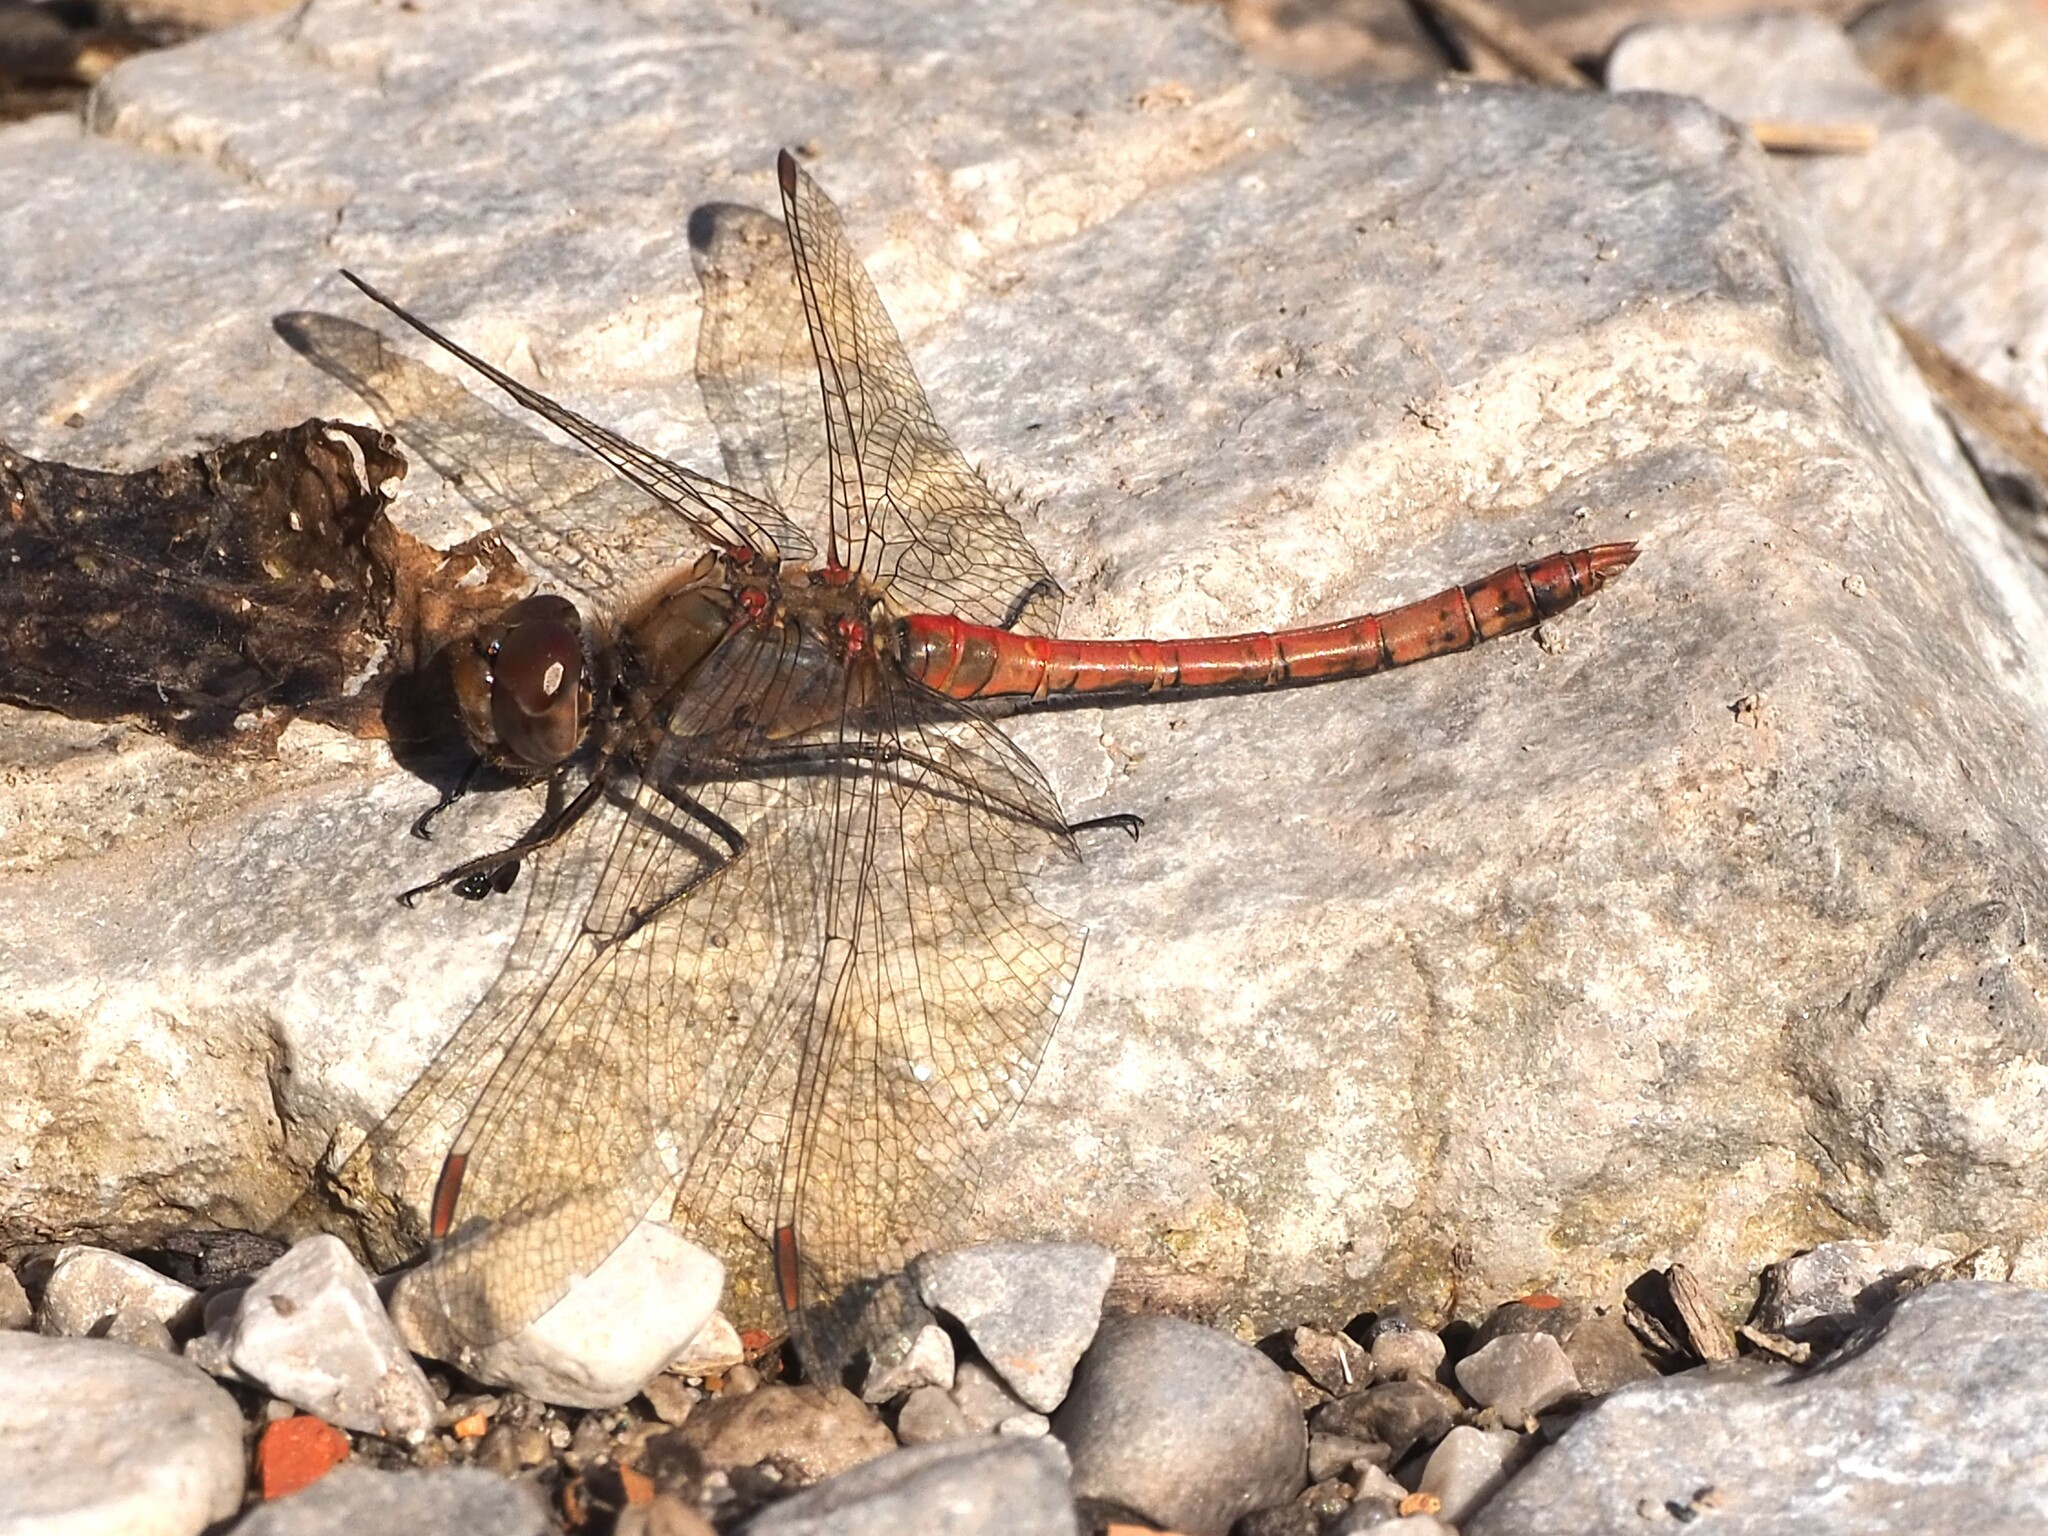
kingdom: Animalia
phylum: Arthropoda
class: Insecta
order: Odonata
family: Libellulidae
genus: Sympetrum
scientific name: Sympetrum striolatum
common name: Common darter
